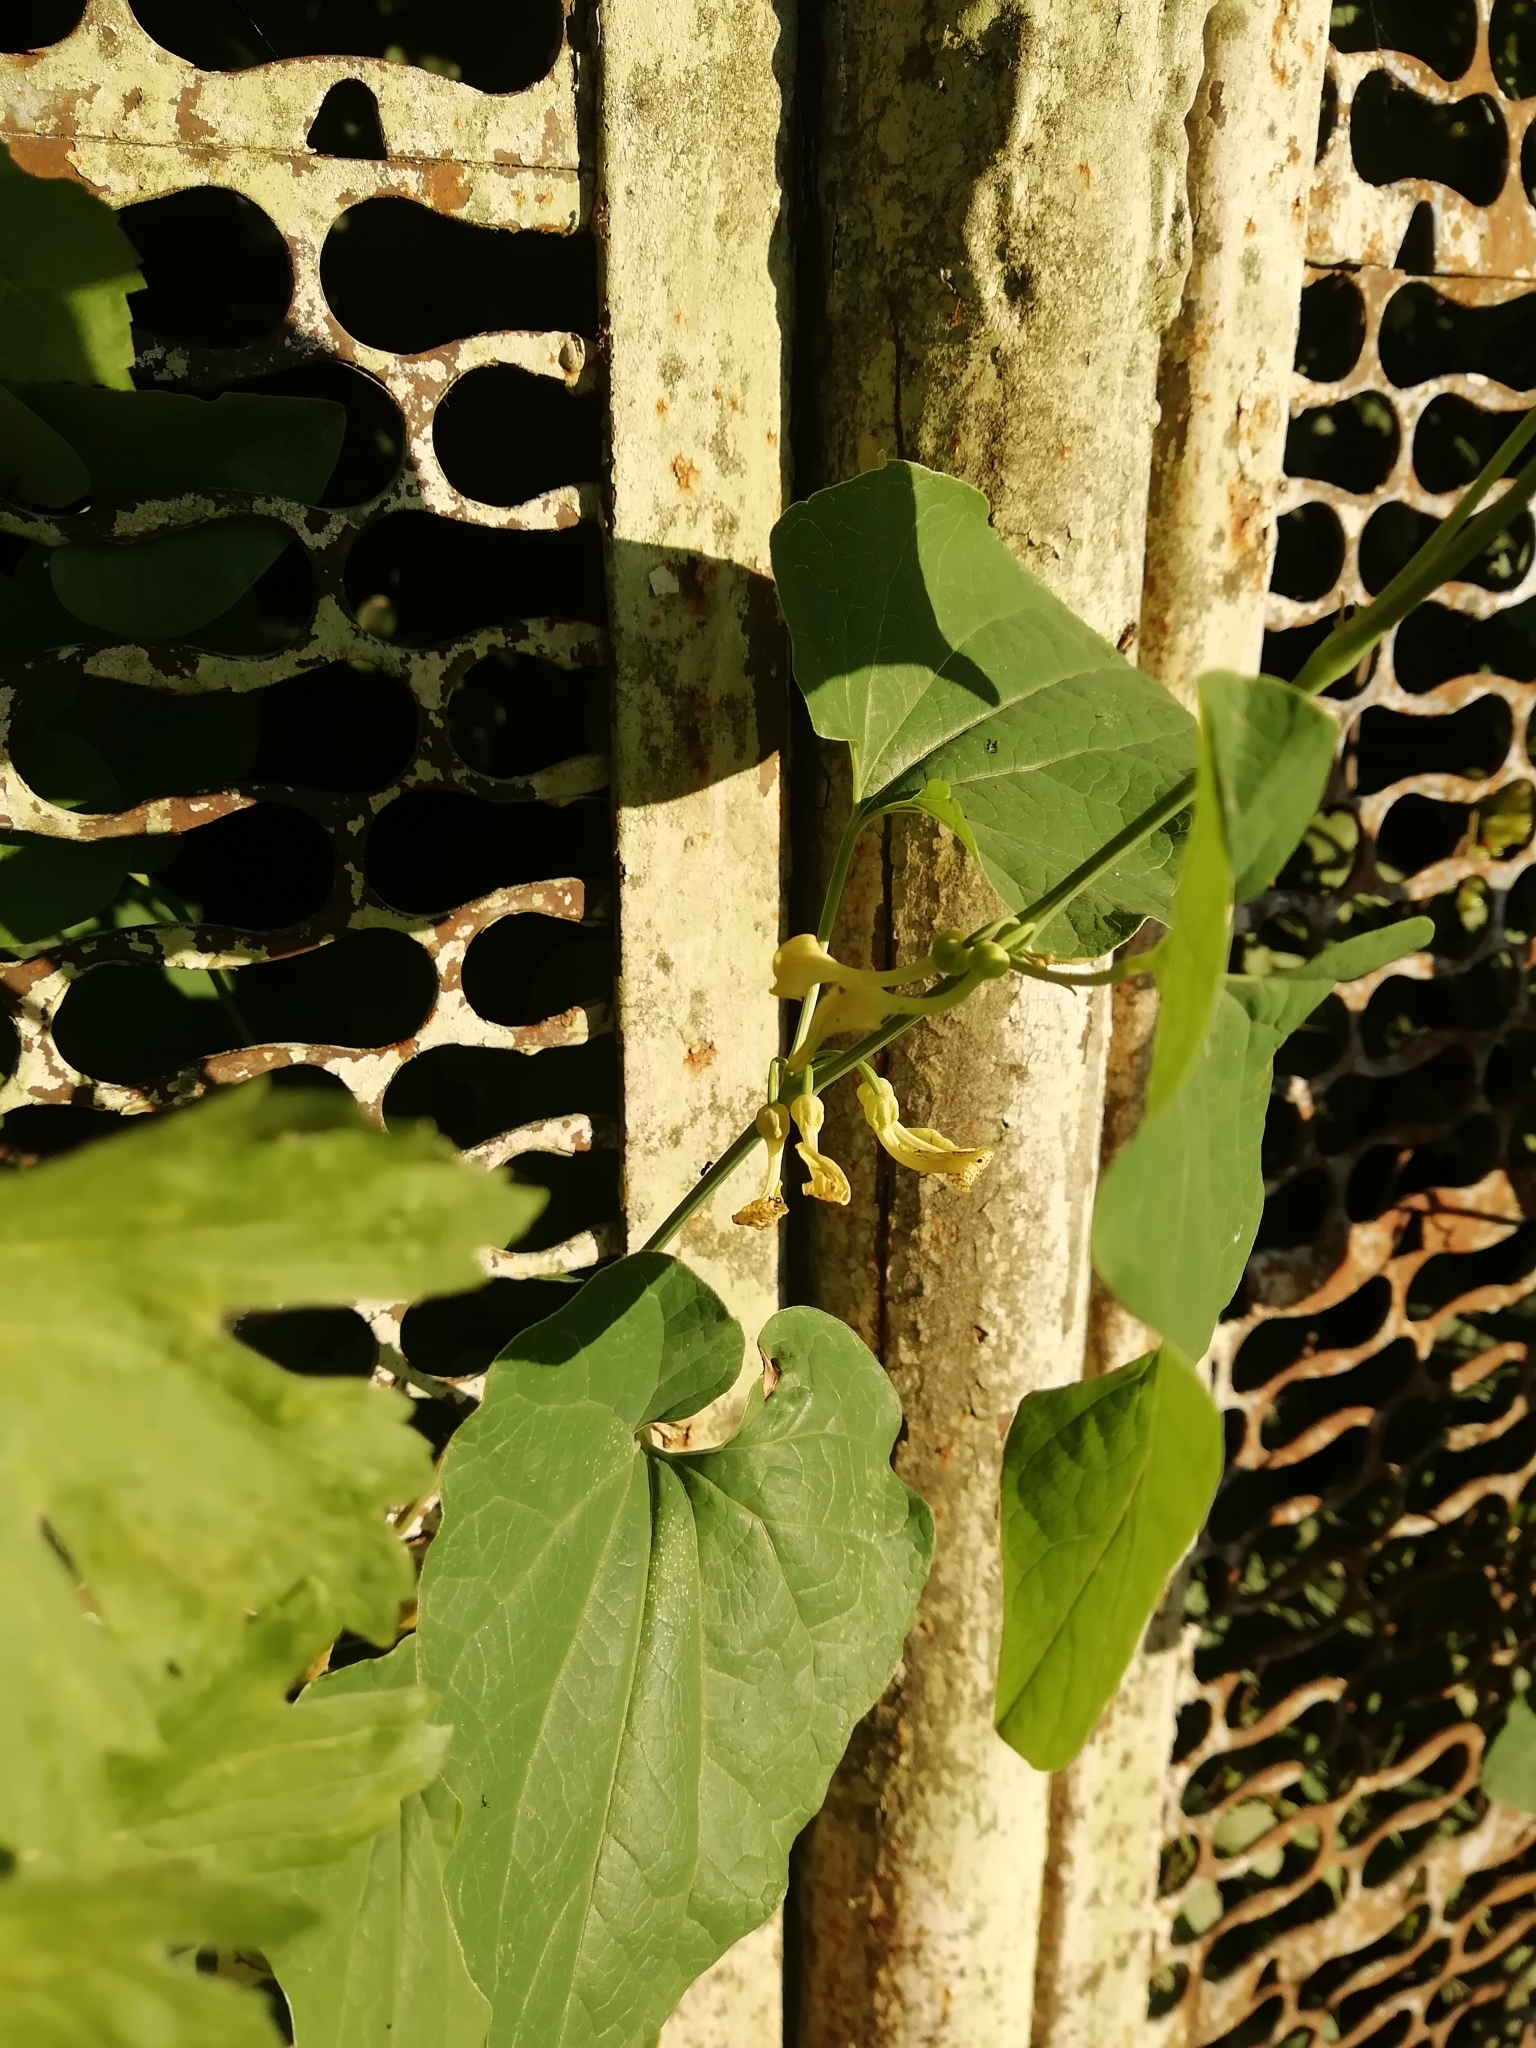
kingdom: Plantae
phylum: Tracheophyta
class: Magnoliopsida
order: Piperales
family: Aristolochiaceae
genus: Aristolochia
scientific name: Aristolochia clematitis
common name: Birthwort
